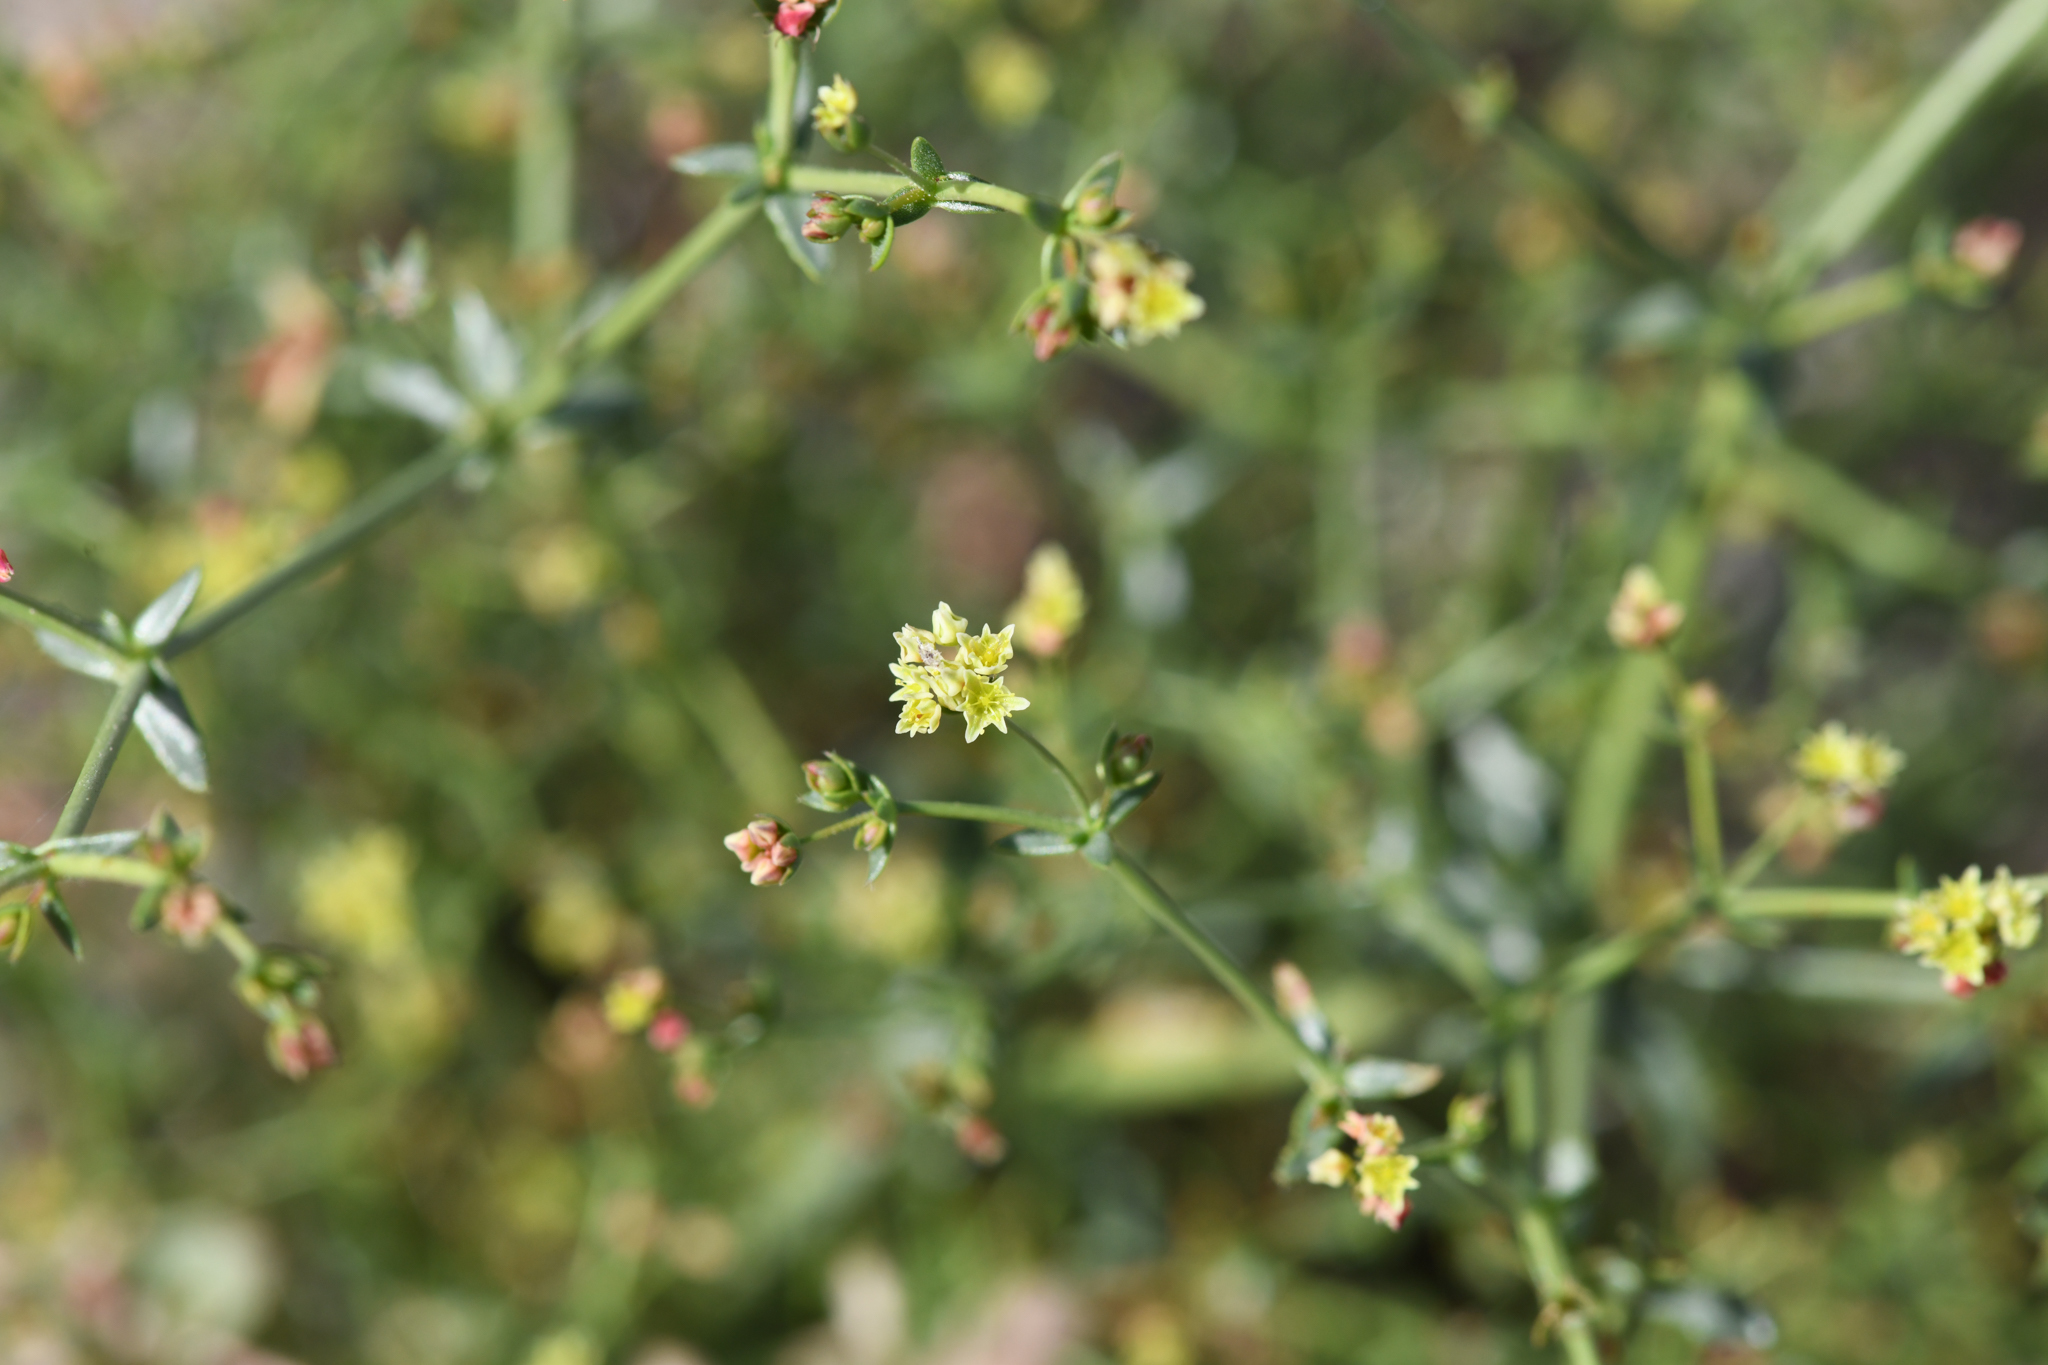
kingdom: Plantae
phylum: Tracheophyta
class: Magnoliopsida
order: Caryophyllales
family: Polygonaceae
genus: Eriogonum
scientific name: Eriogonum galioides
